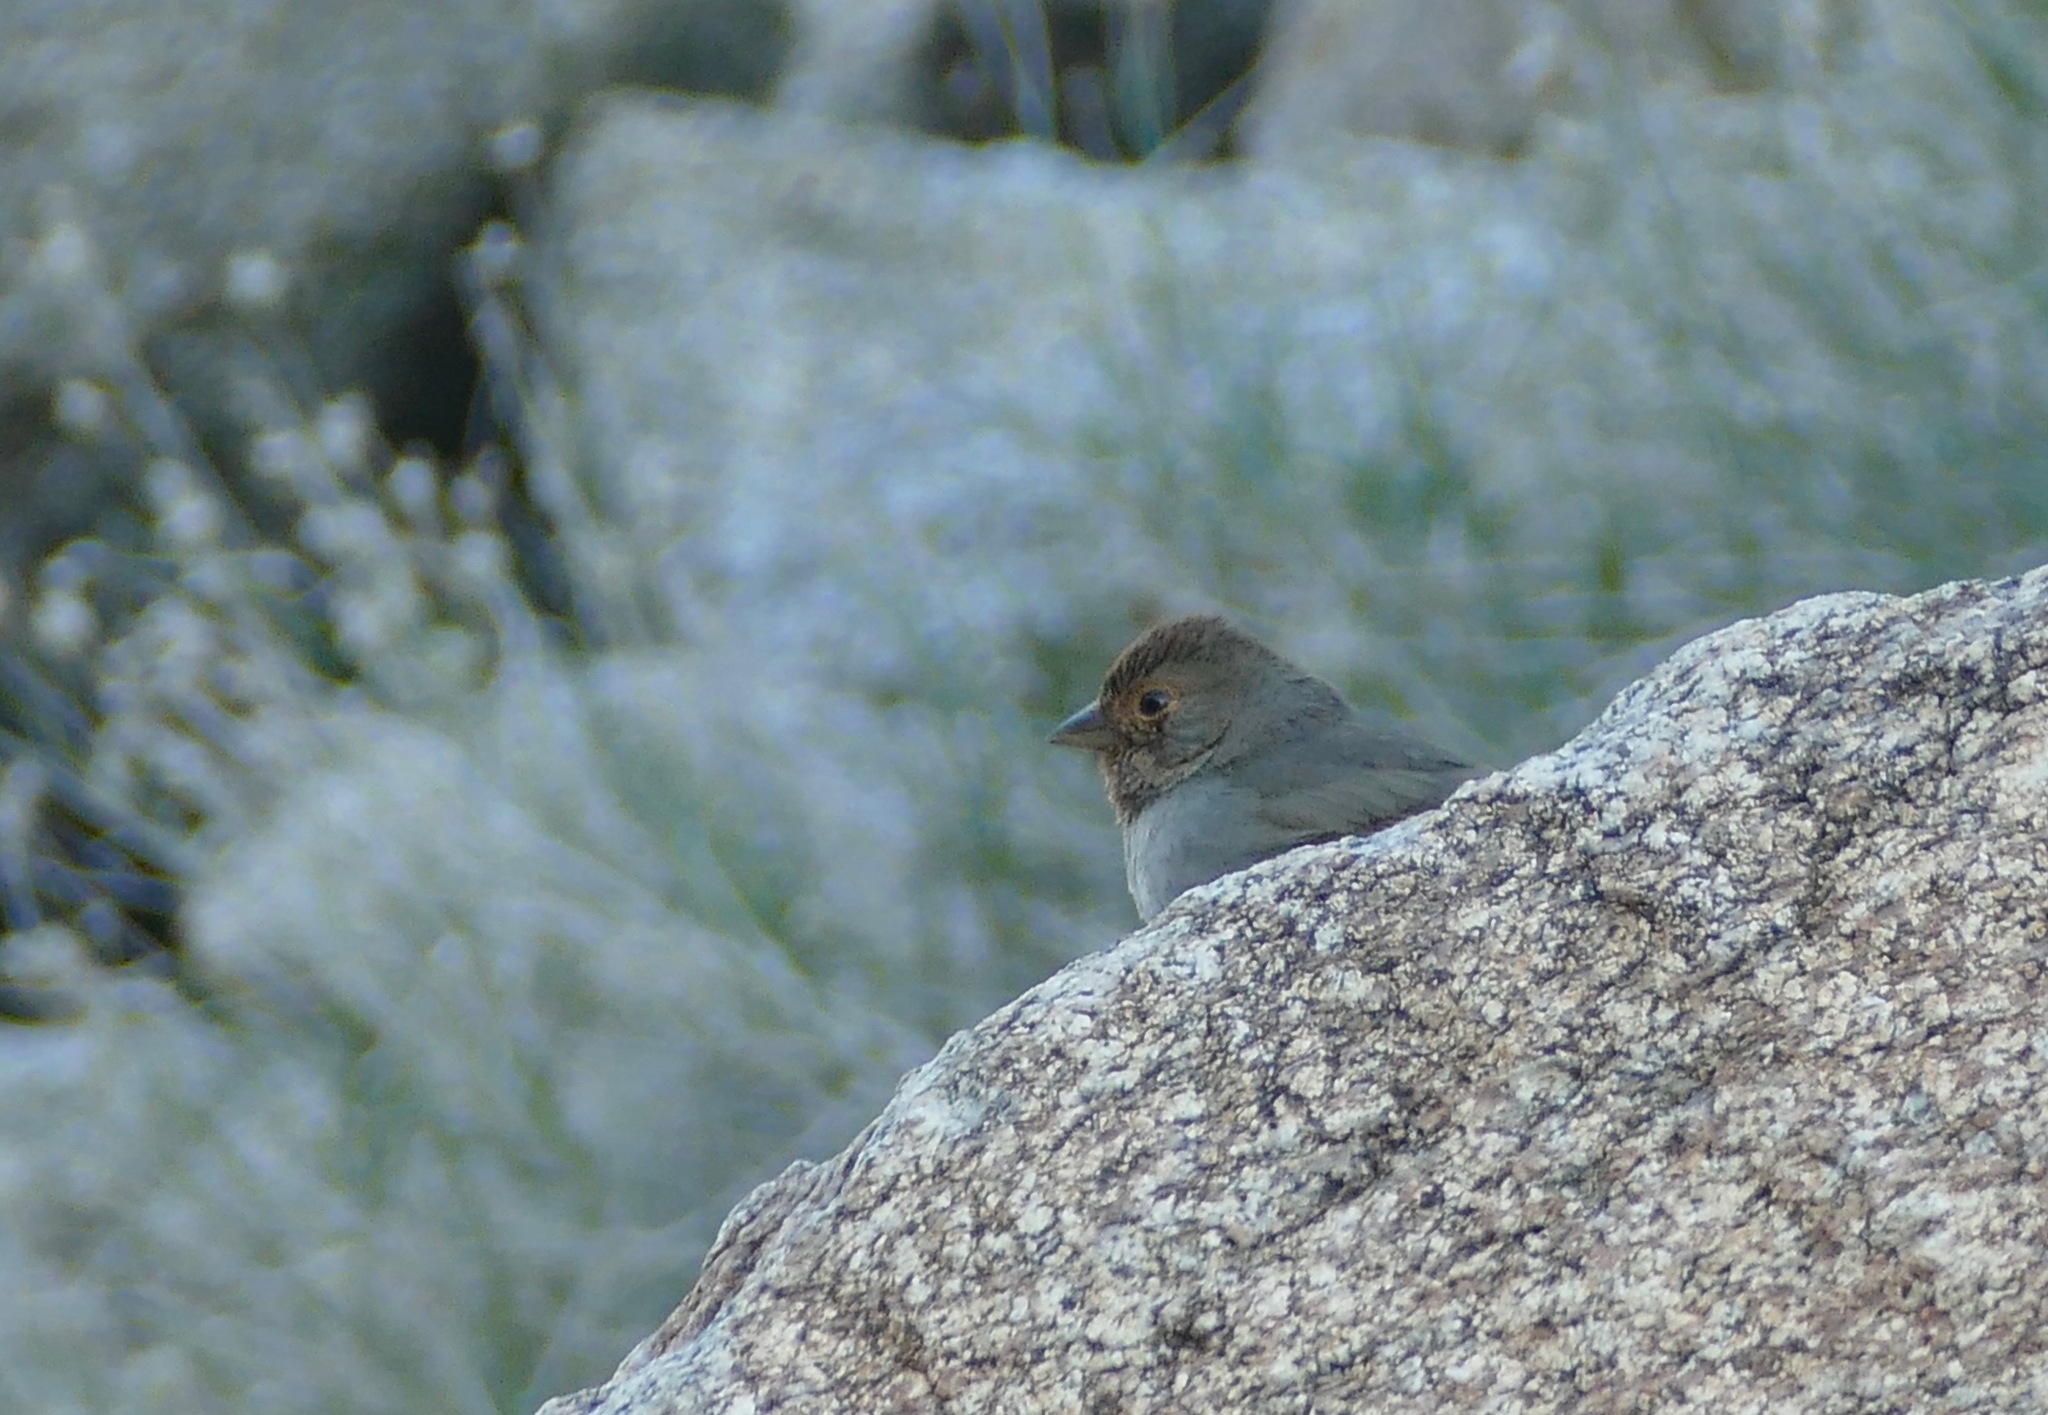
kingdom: Animalia
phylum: Chordata
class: Aves
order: Passeriformes
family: Passerellidae
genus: Melozone
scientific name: Melozone crissalis
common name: California towhee
